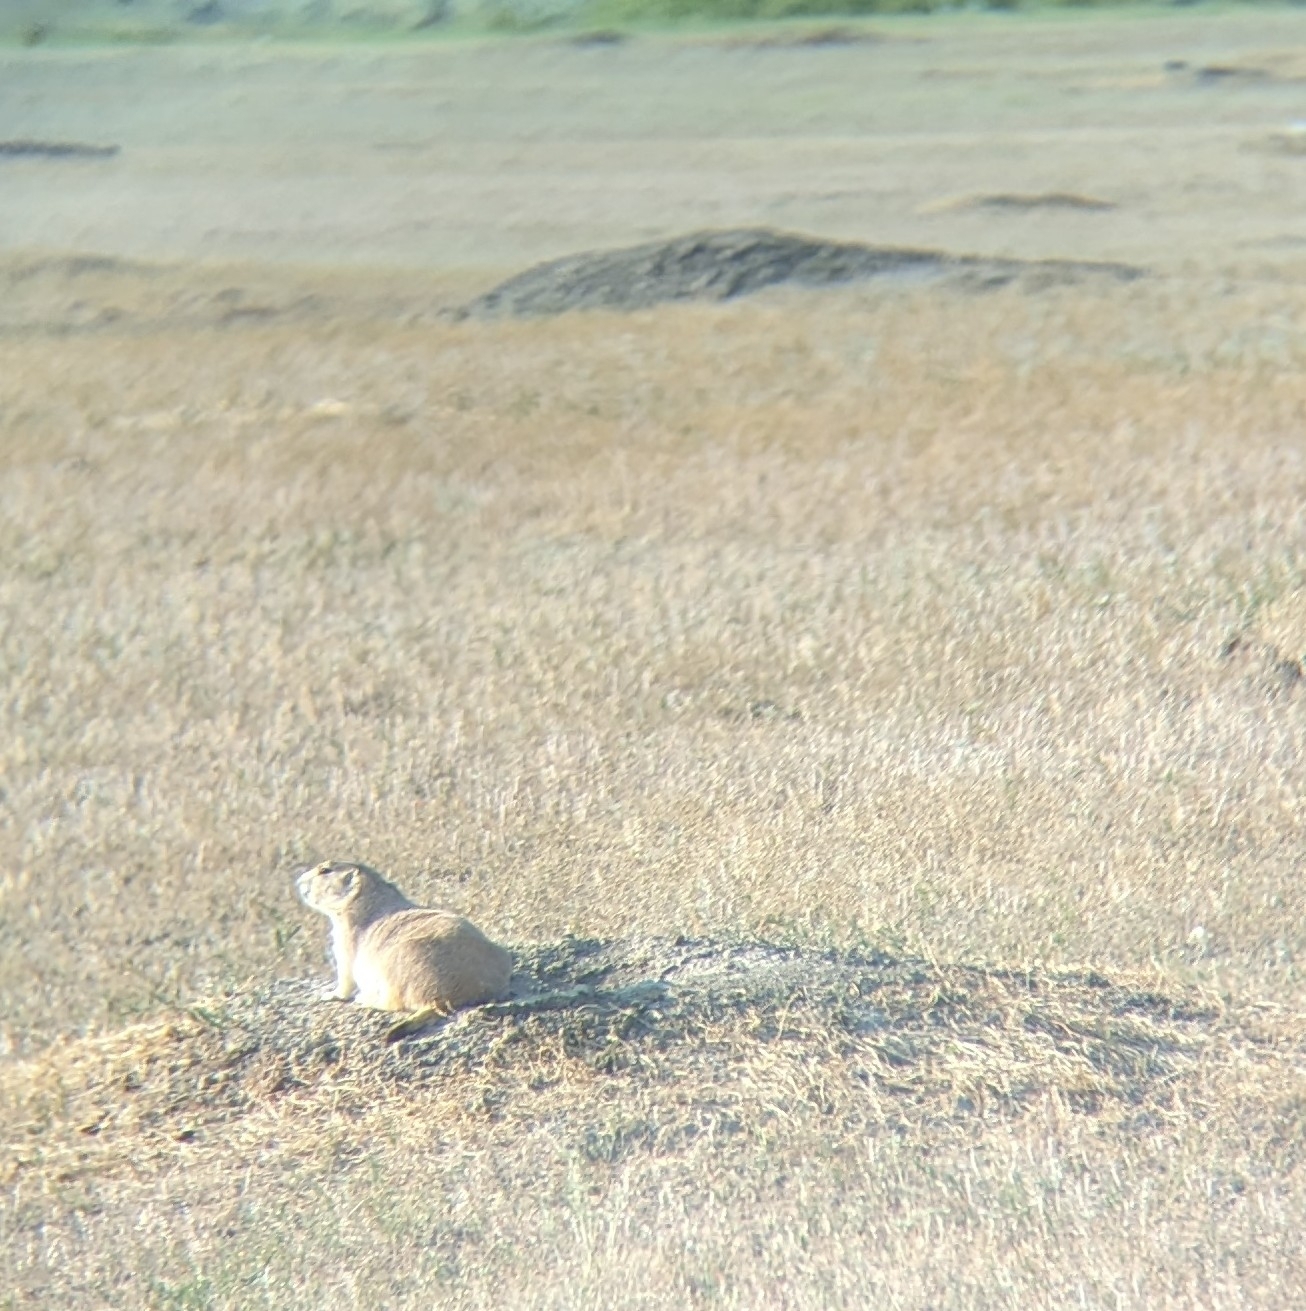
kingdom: Animalia
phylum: Chordata
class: Mammalia
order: Rodentia
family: Sciuridae
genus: Cynomys
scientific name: Cynomys ludovicianus
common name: Black-tailed prairie dog
